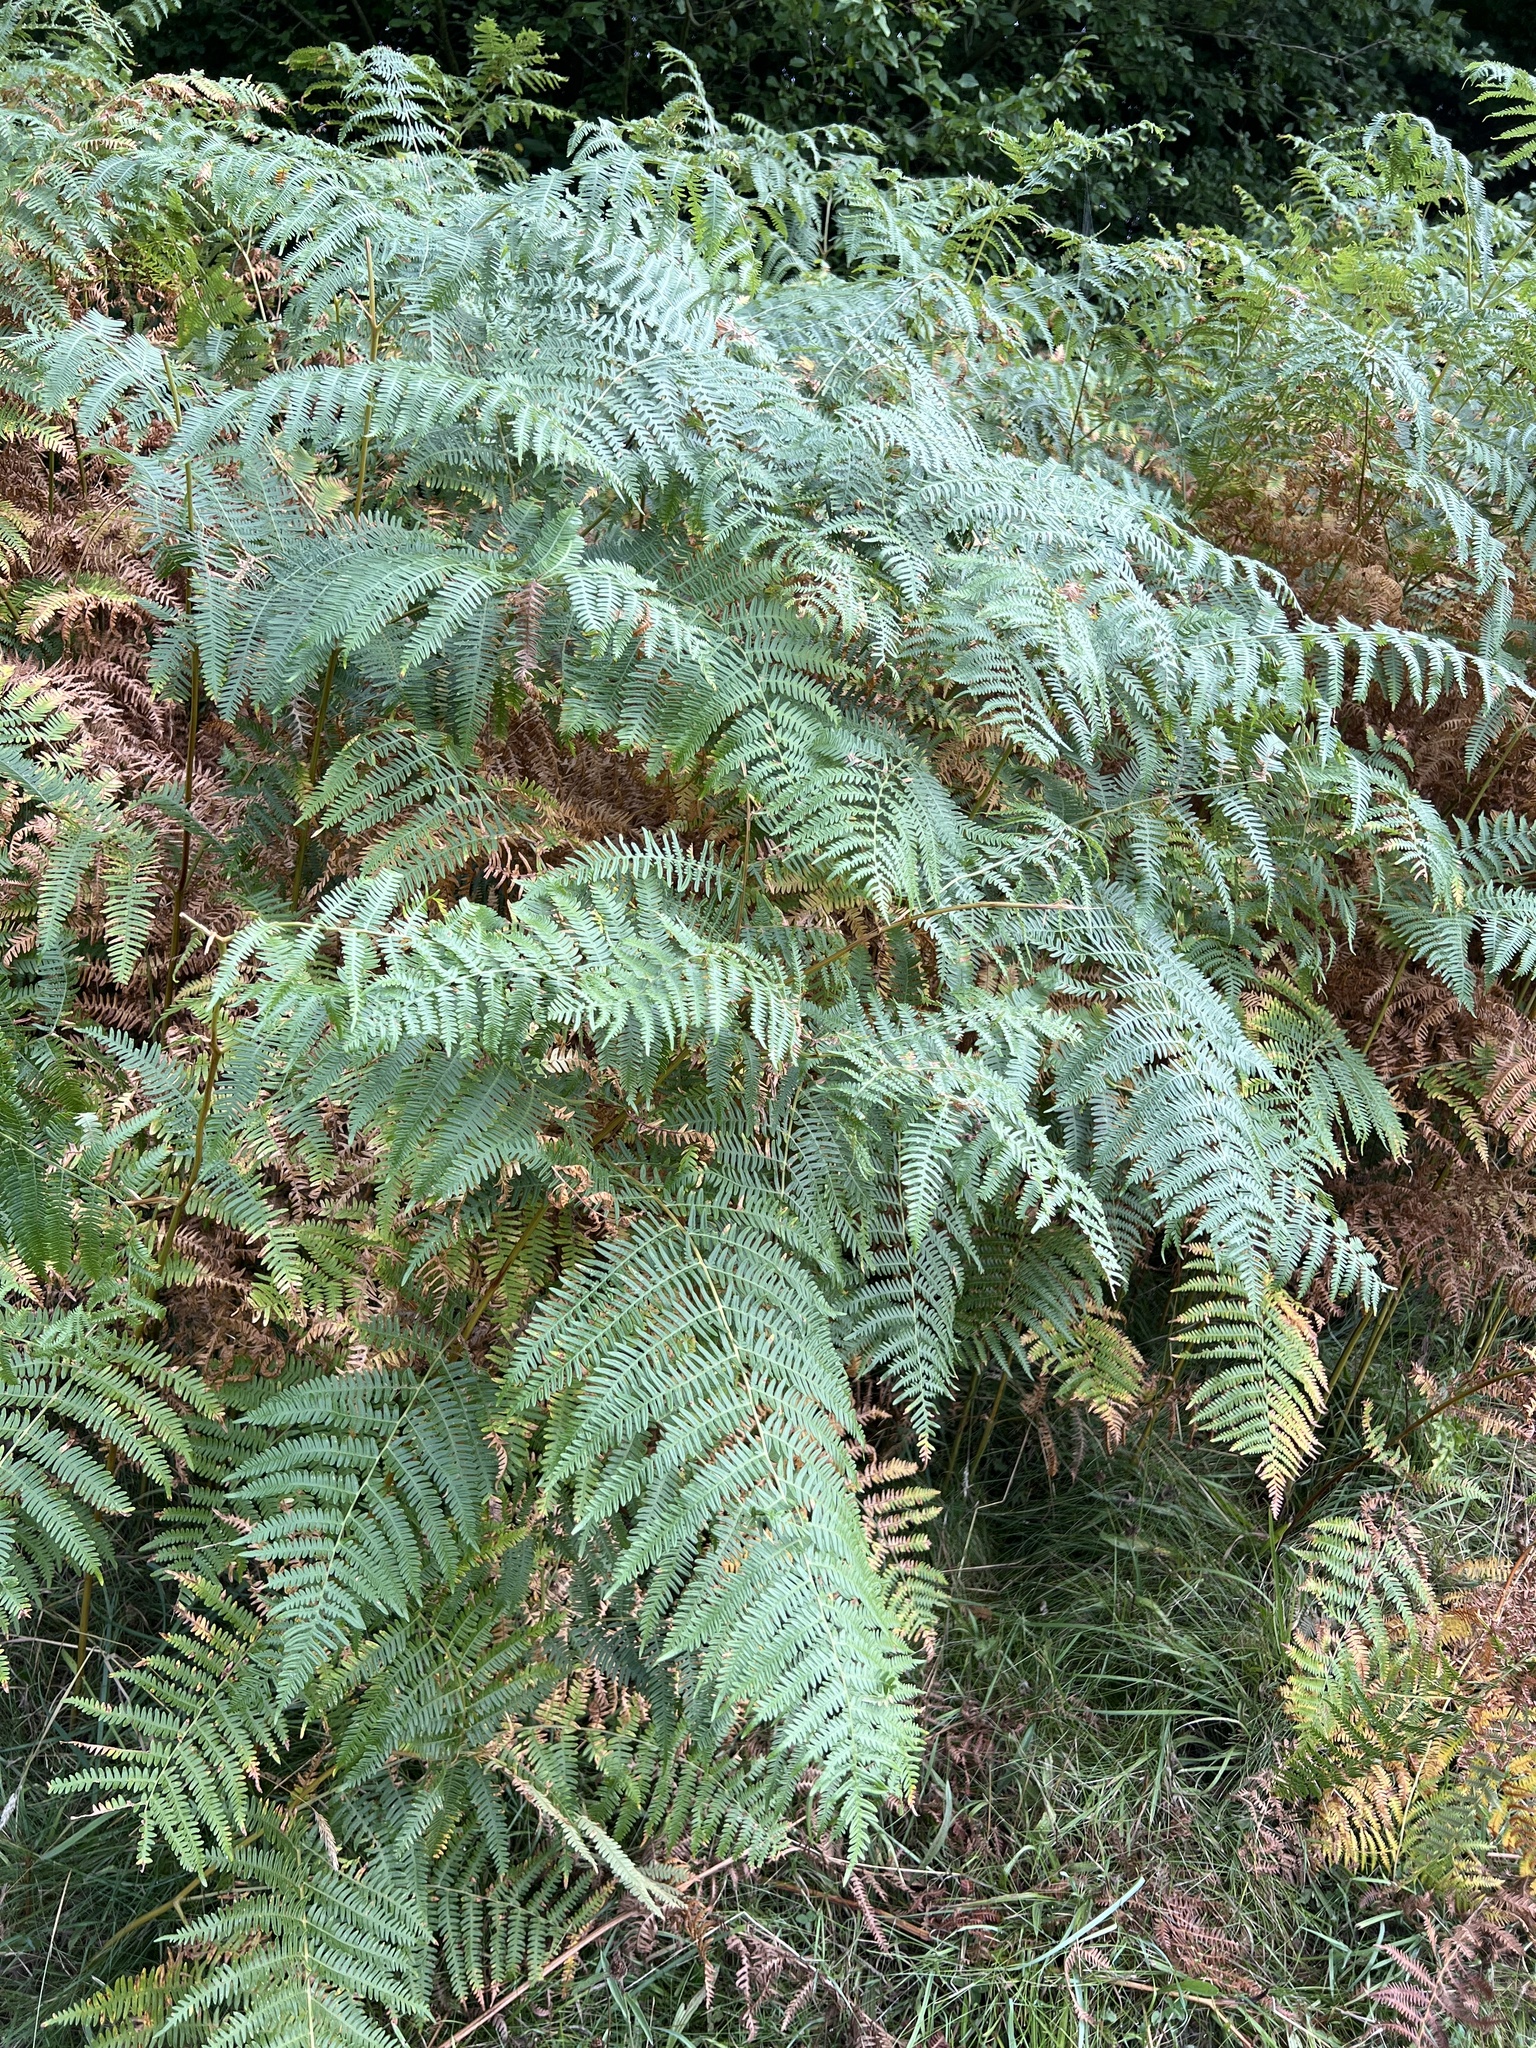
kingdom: Plantae
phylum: Tracheophyta
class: Polypodiopsida
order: Polypodiales
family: Dennstaedtiaceae
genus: Pteridium
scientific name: Pteridium aquilinum
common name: Bracken
